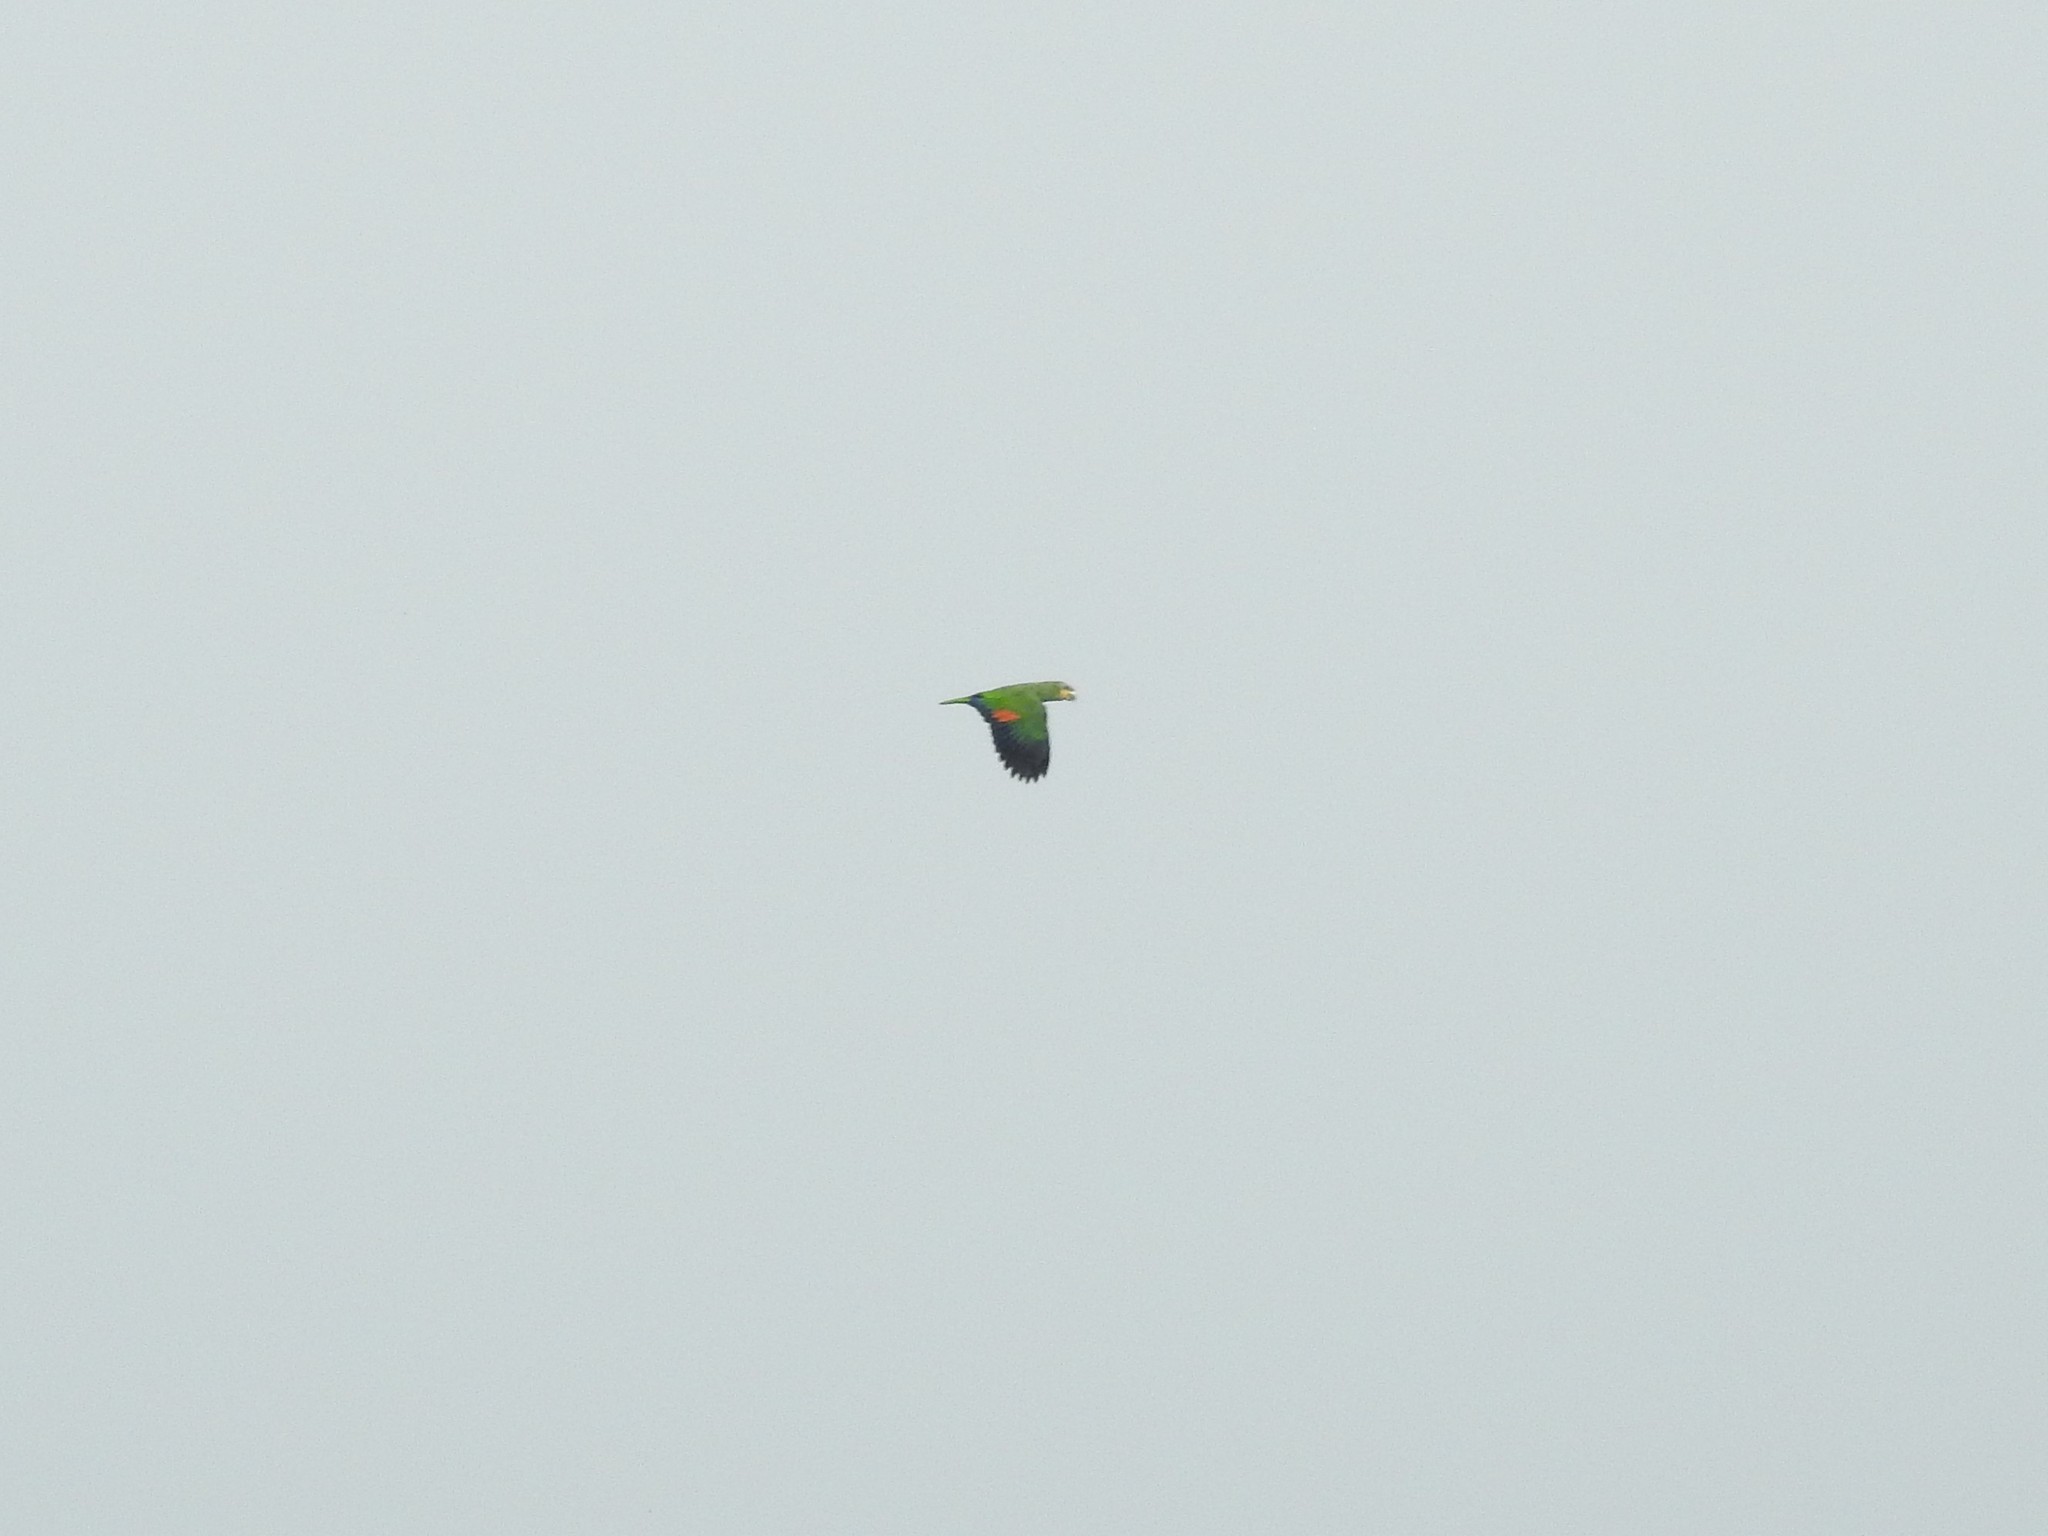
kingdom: Animalia
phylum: Chordata
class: Aves
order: Psittaciformes
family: Psittacidae
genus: Amazona
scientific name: Amazona amazonica
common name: Orange-winged amazon
